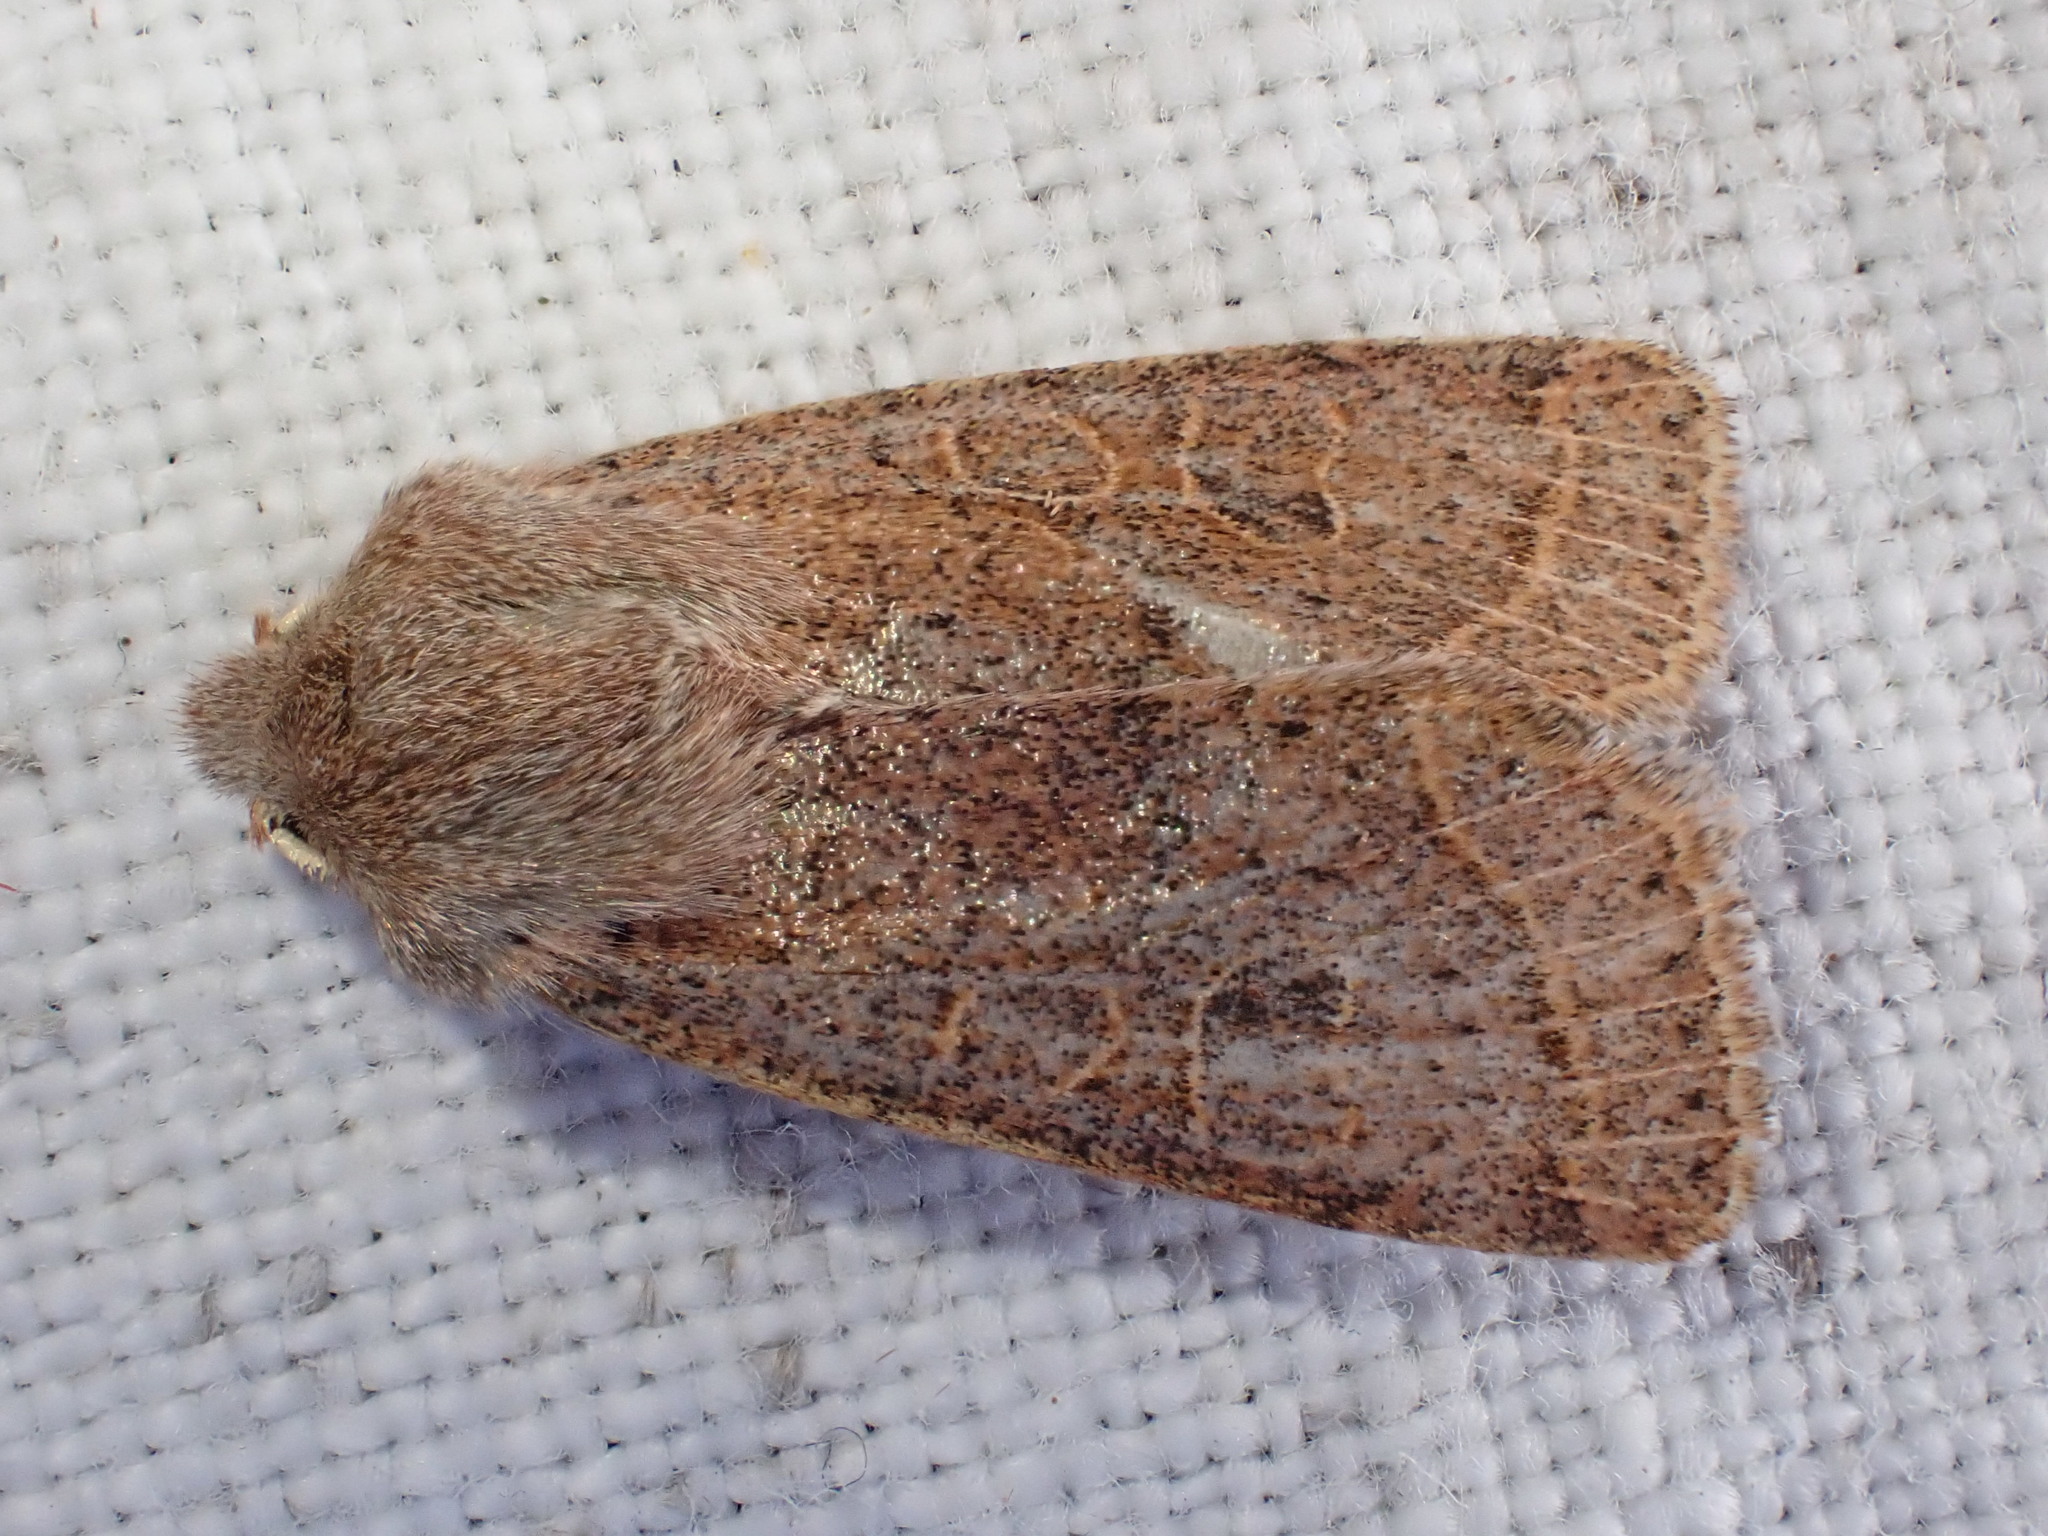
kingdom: Animalia
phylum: Arthropoda
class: Insecta
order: Lepidoptera
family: Noctuidae
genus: Orthosia
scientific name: Orthosia cerasi
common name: Common quaker
